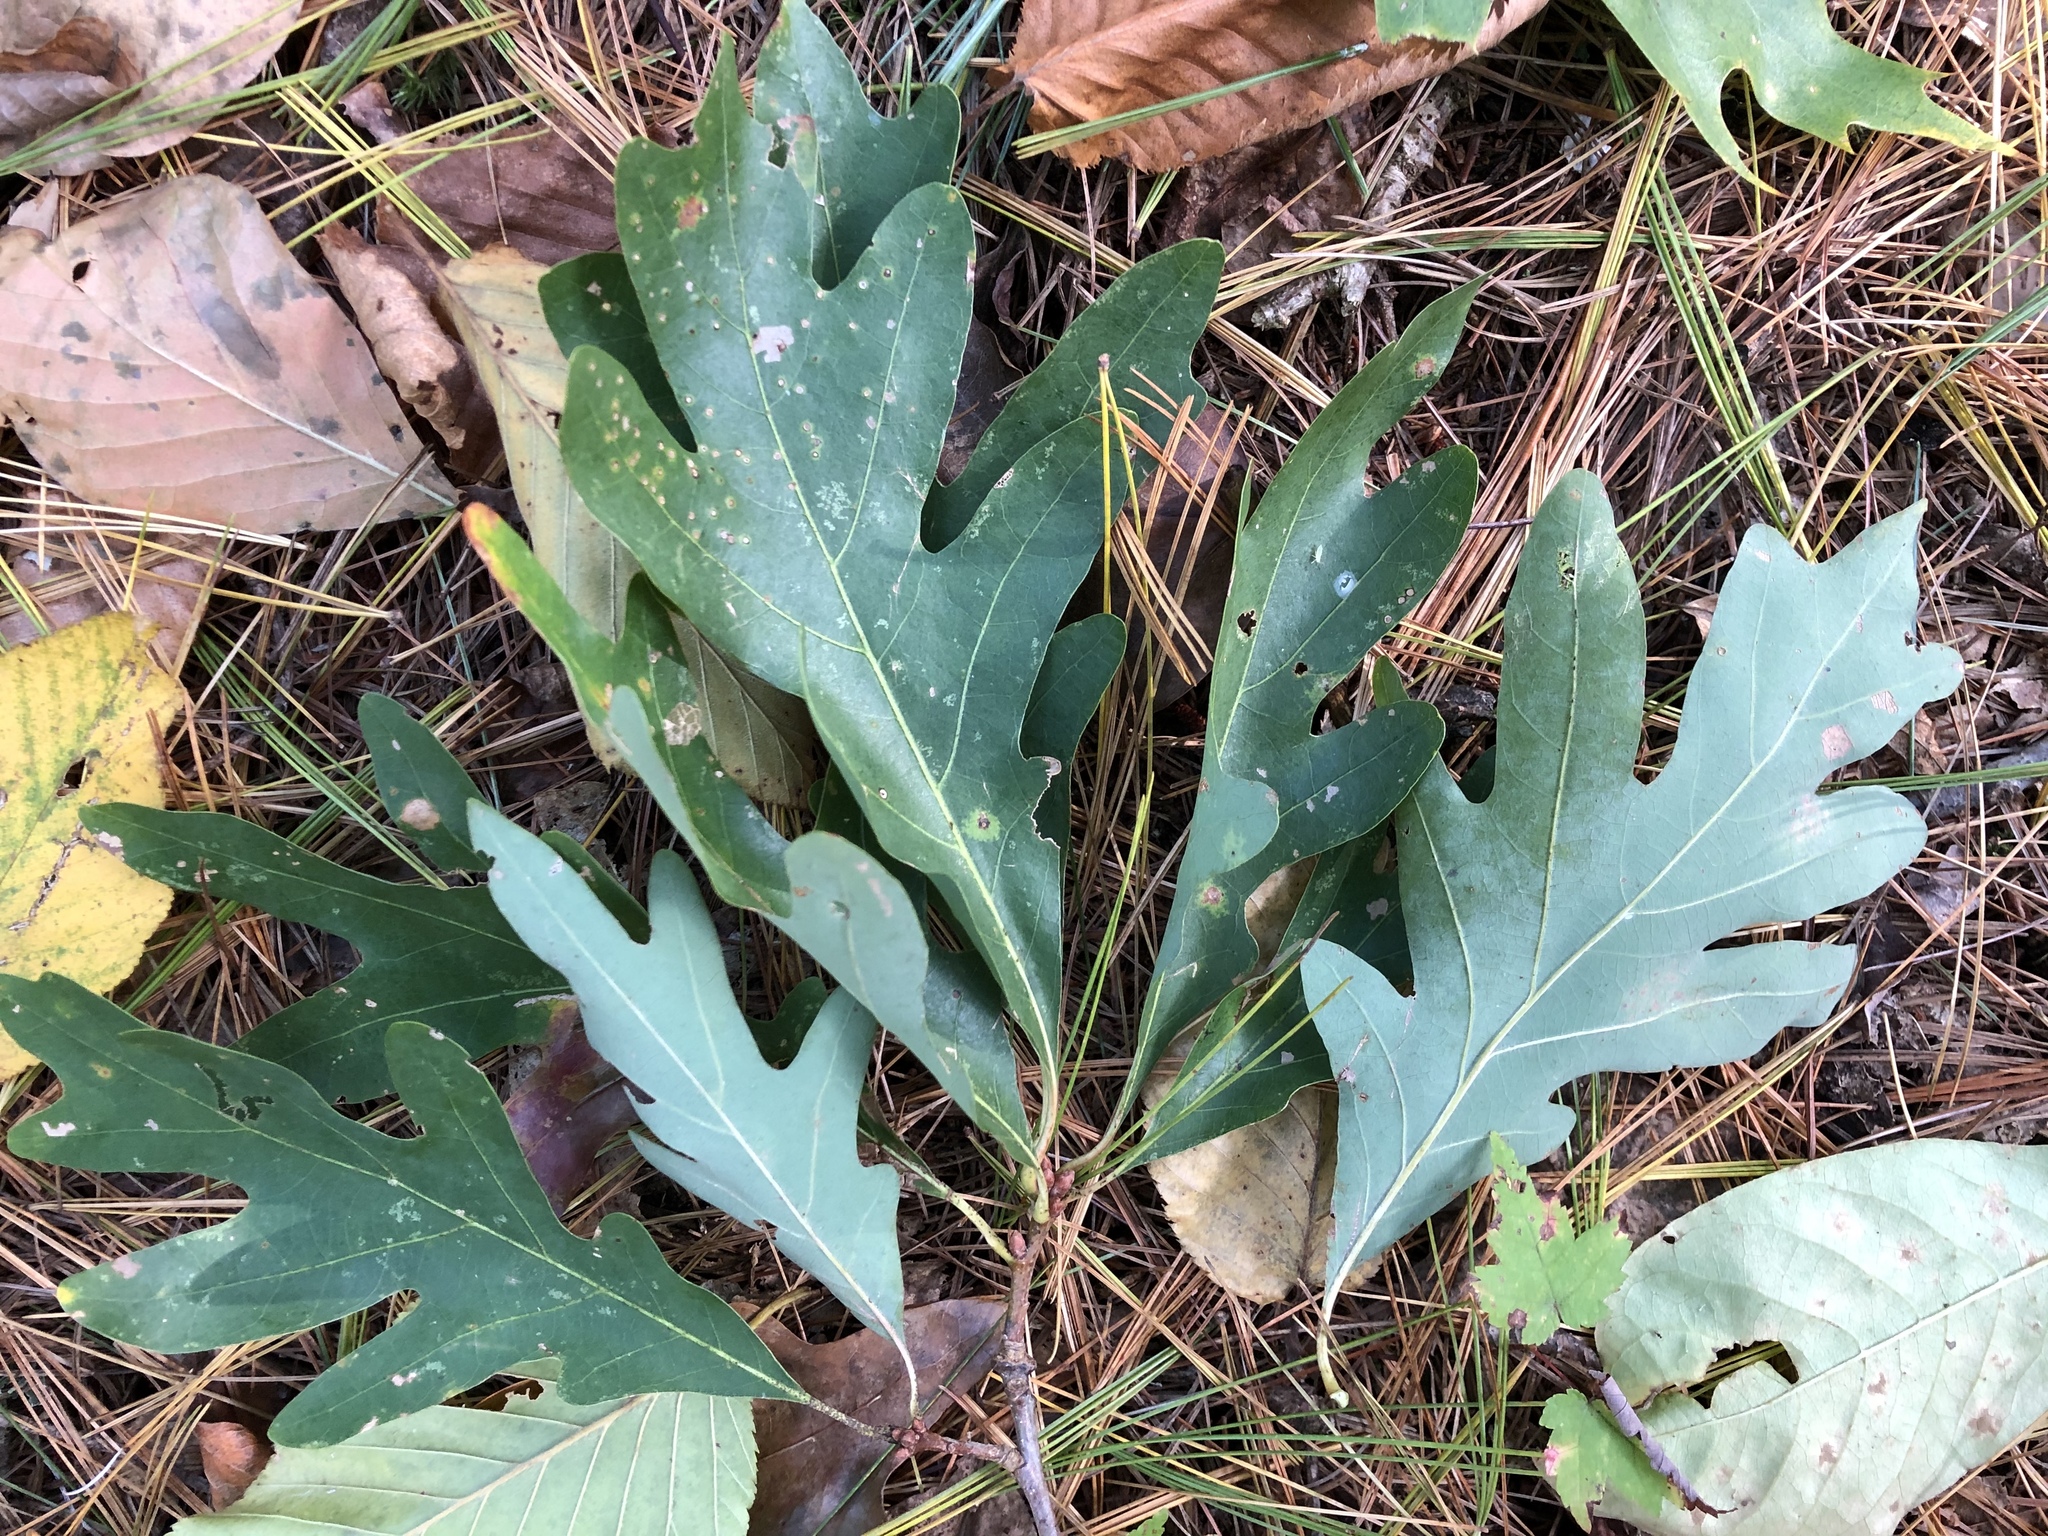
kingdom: Plantae
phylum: Tracheophyta
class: Magnoliopsida
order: Fagales
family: Fagaceae
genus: Quercus
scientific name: Quercus alba
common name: White oak
